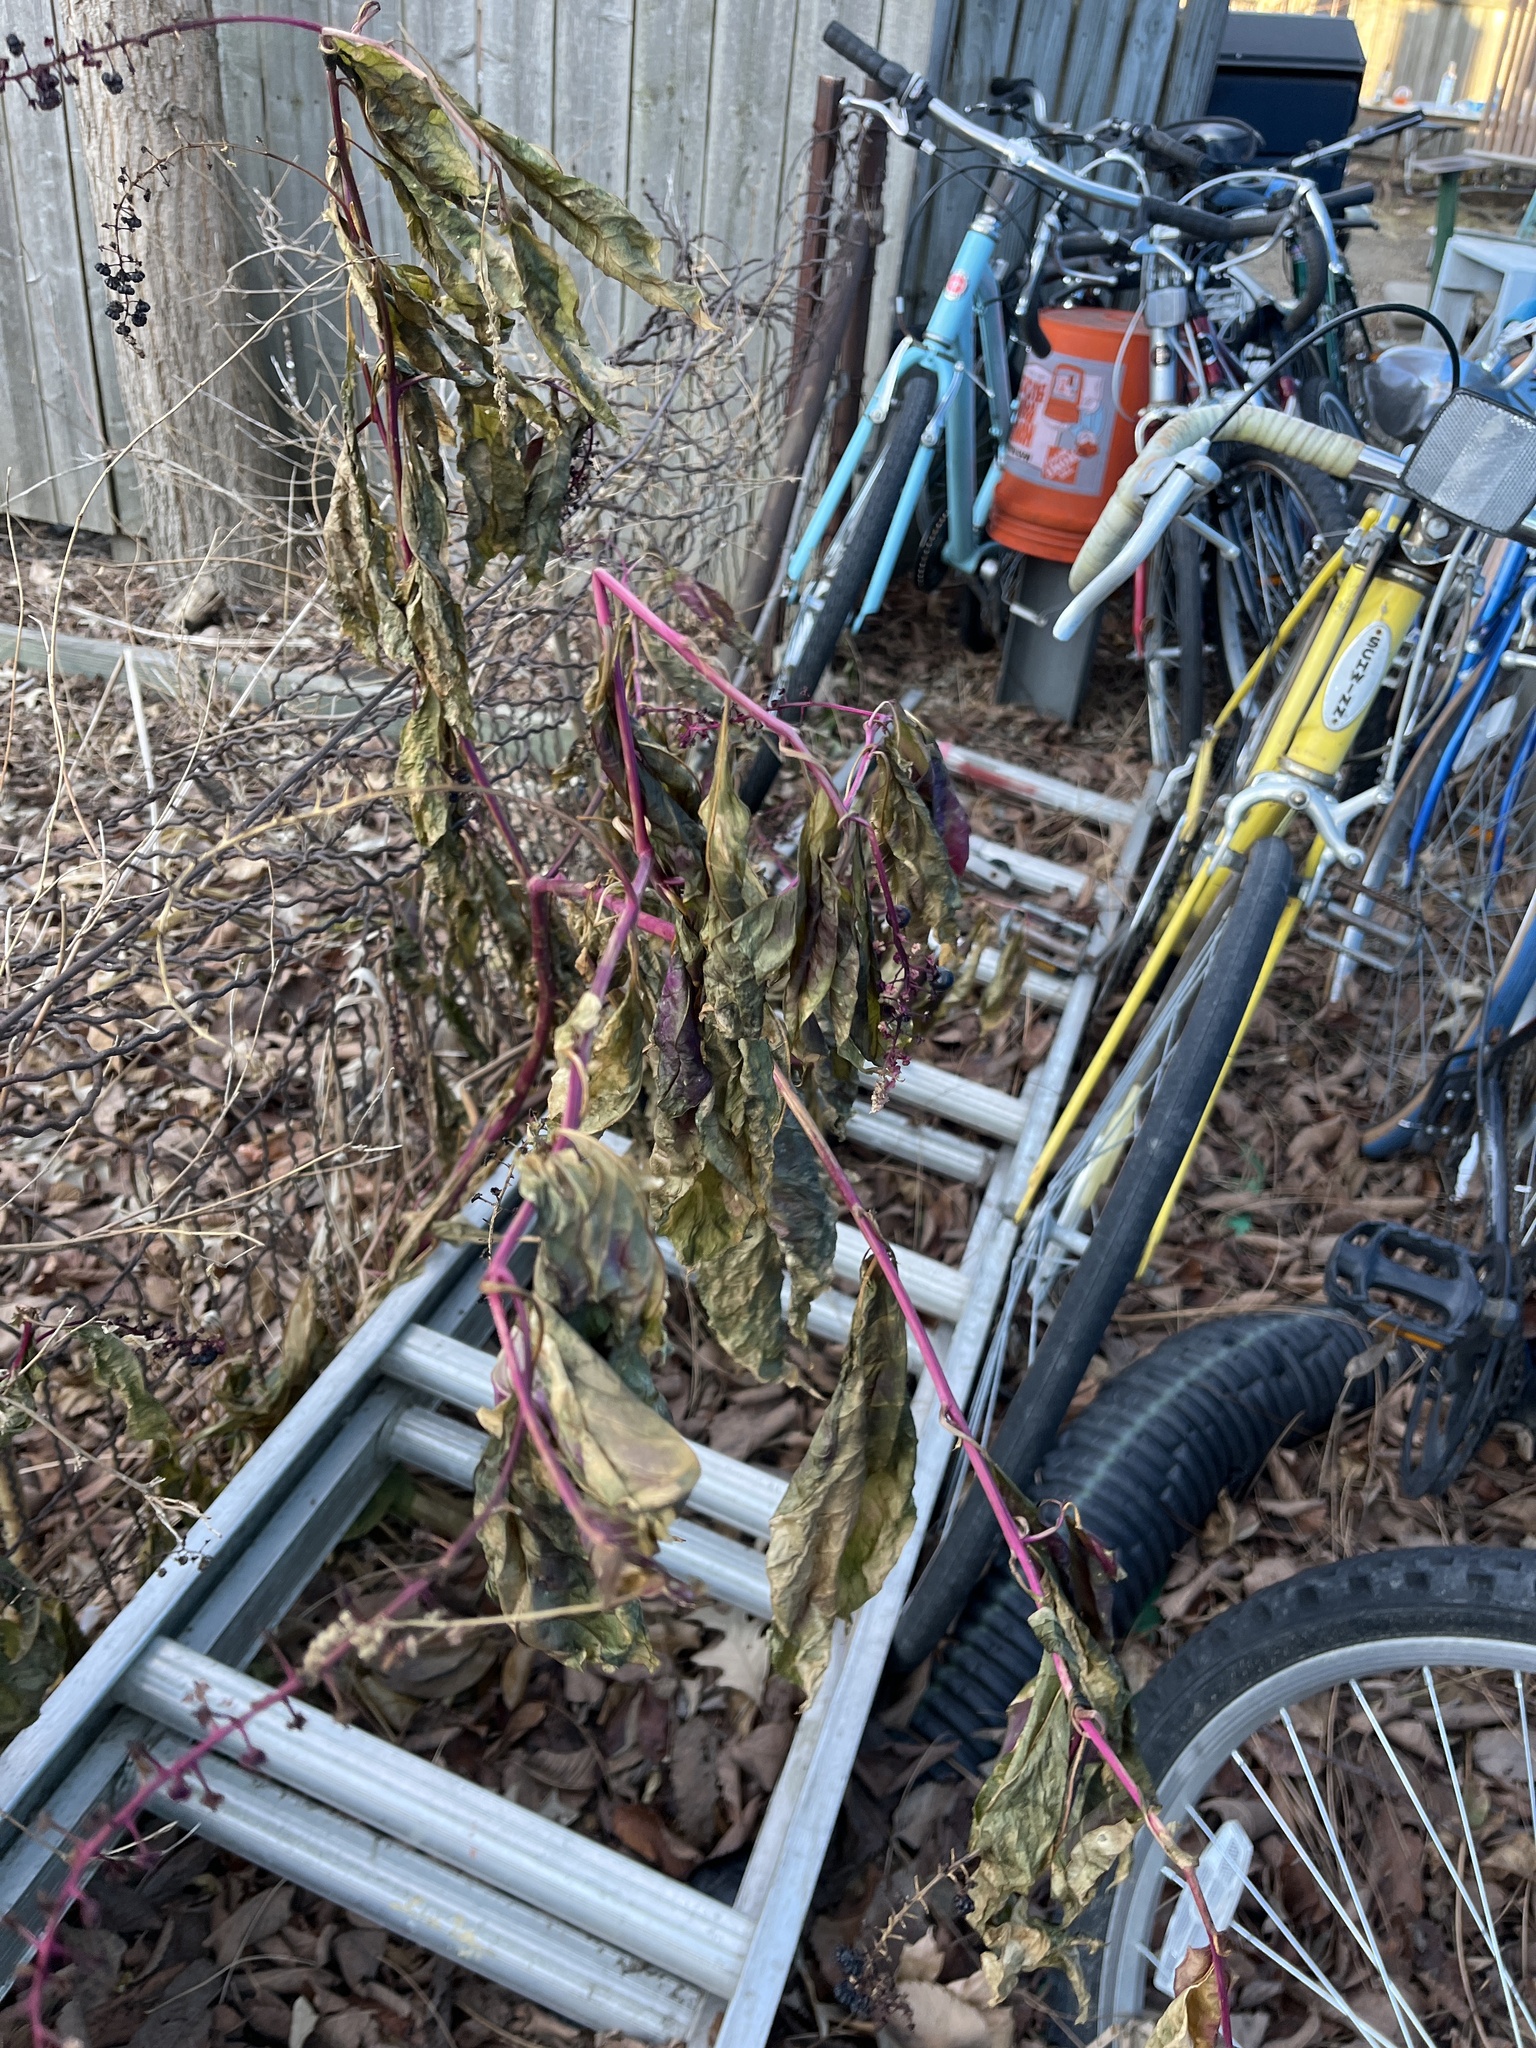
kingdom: Plantae
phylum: Tracheophyta
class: Magnoliopsida
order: Caryophyllales
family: Phytolaccaceae
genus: Phytolacca
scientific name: Phytolacca americana
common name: American pokeweed
